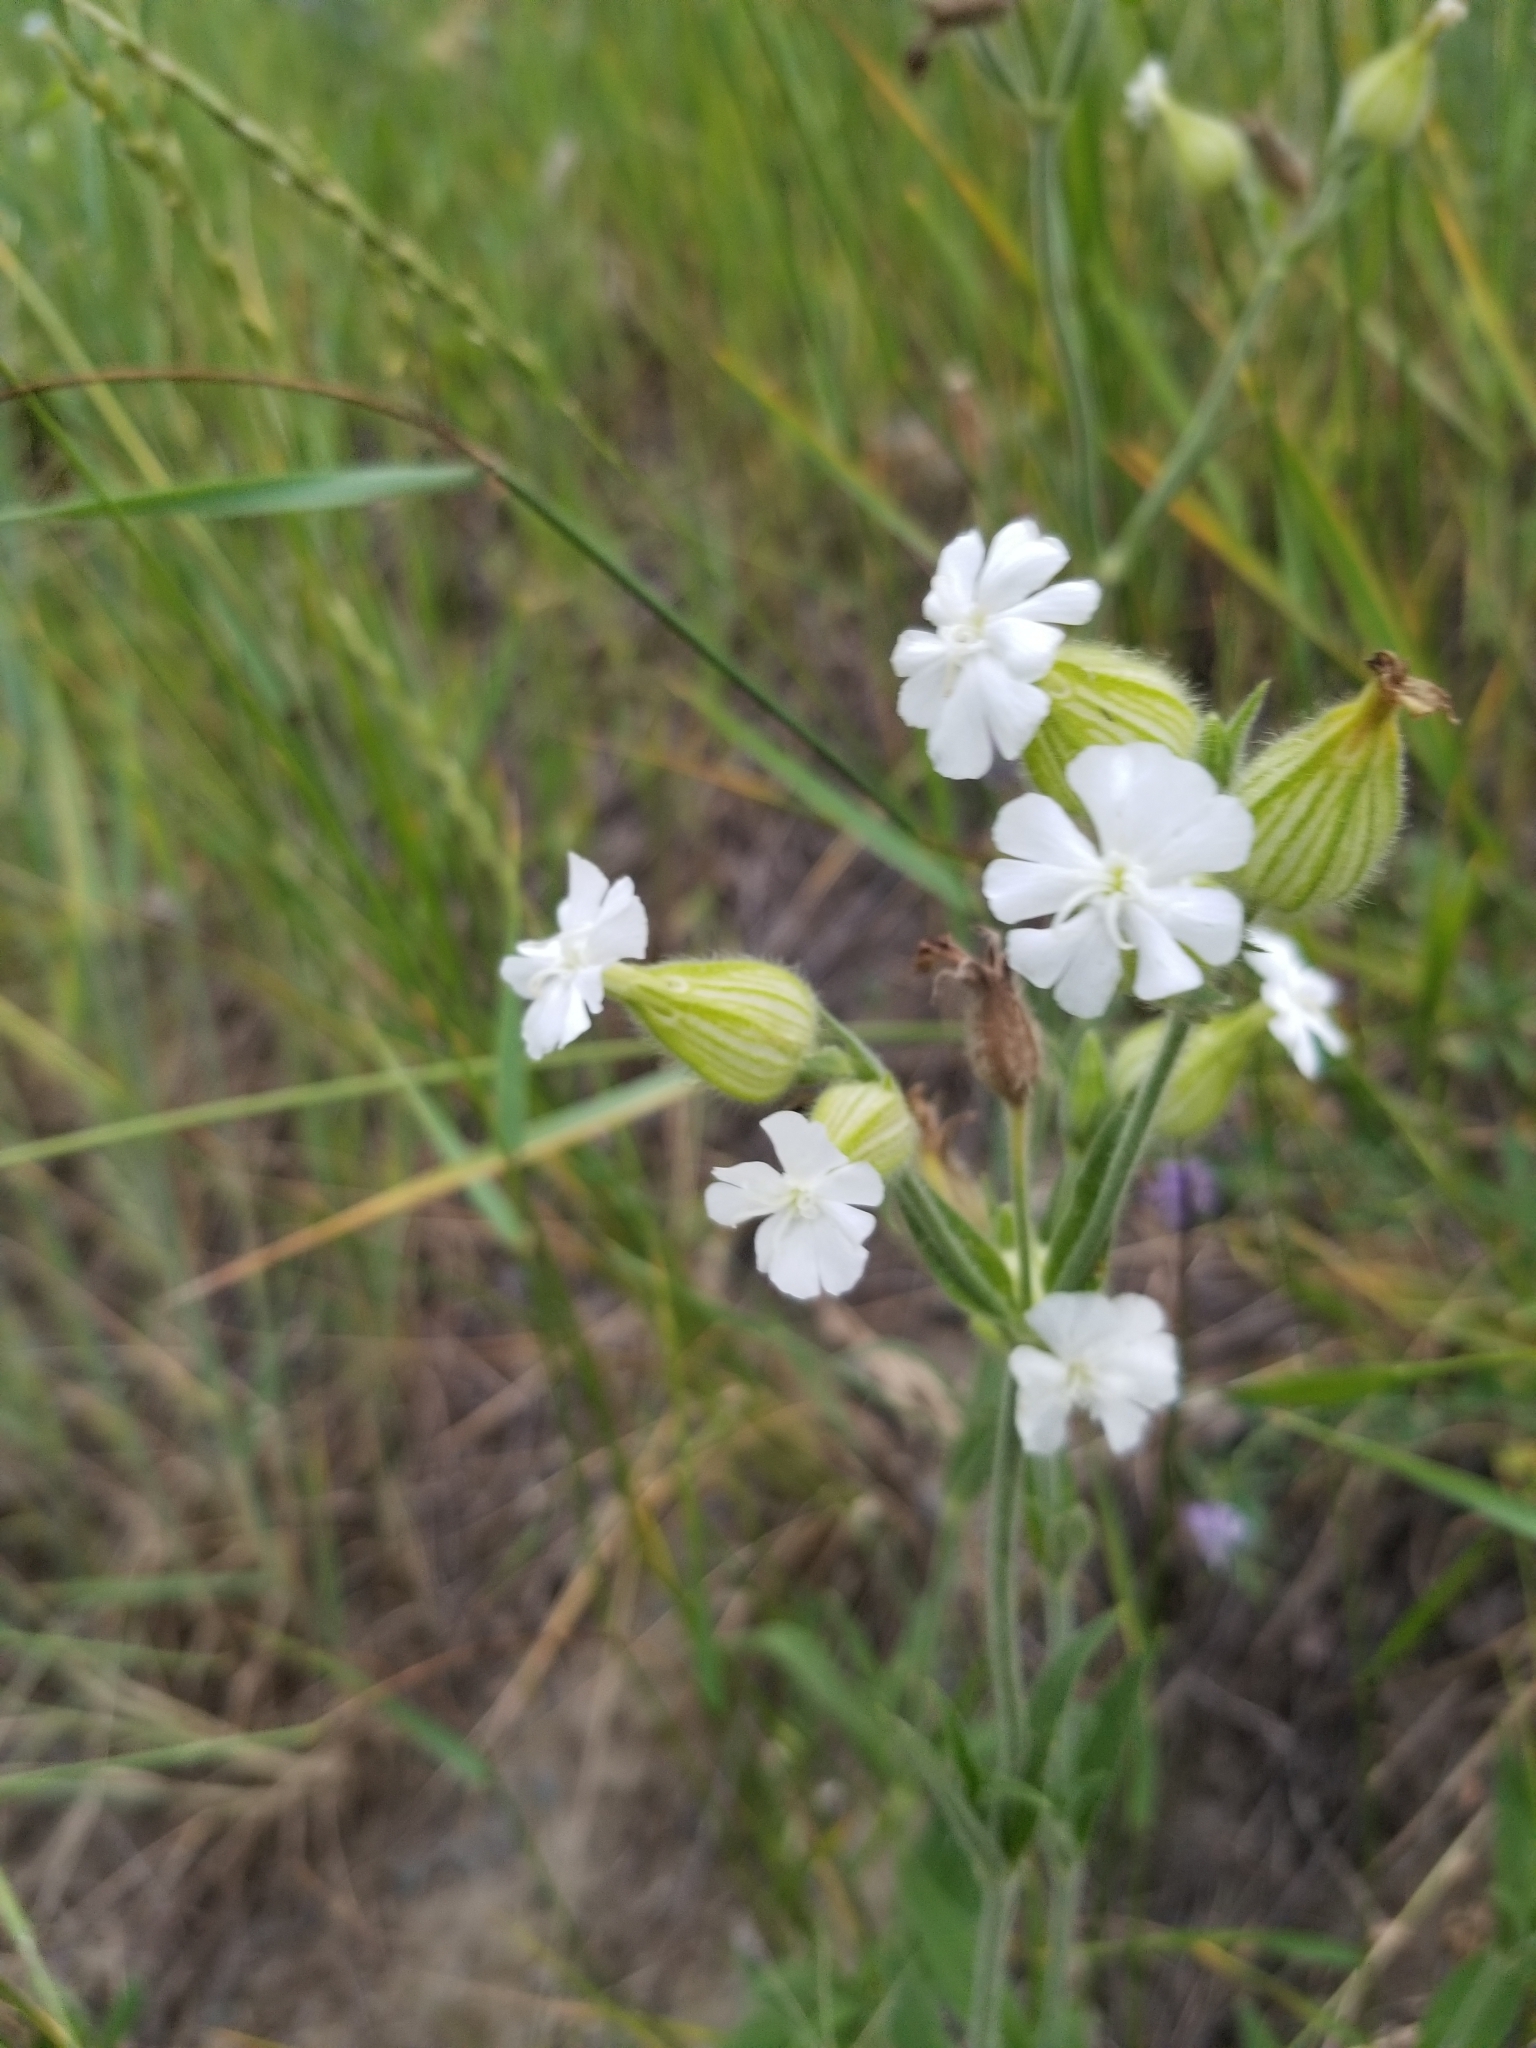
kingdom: Plantae
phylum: Tracheophyta
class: Magnoliopsida
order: Caryophyllales
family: Caryophyllaceae
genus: Silene
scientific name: Silene latifolia
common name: White campion
